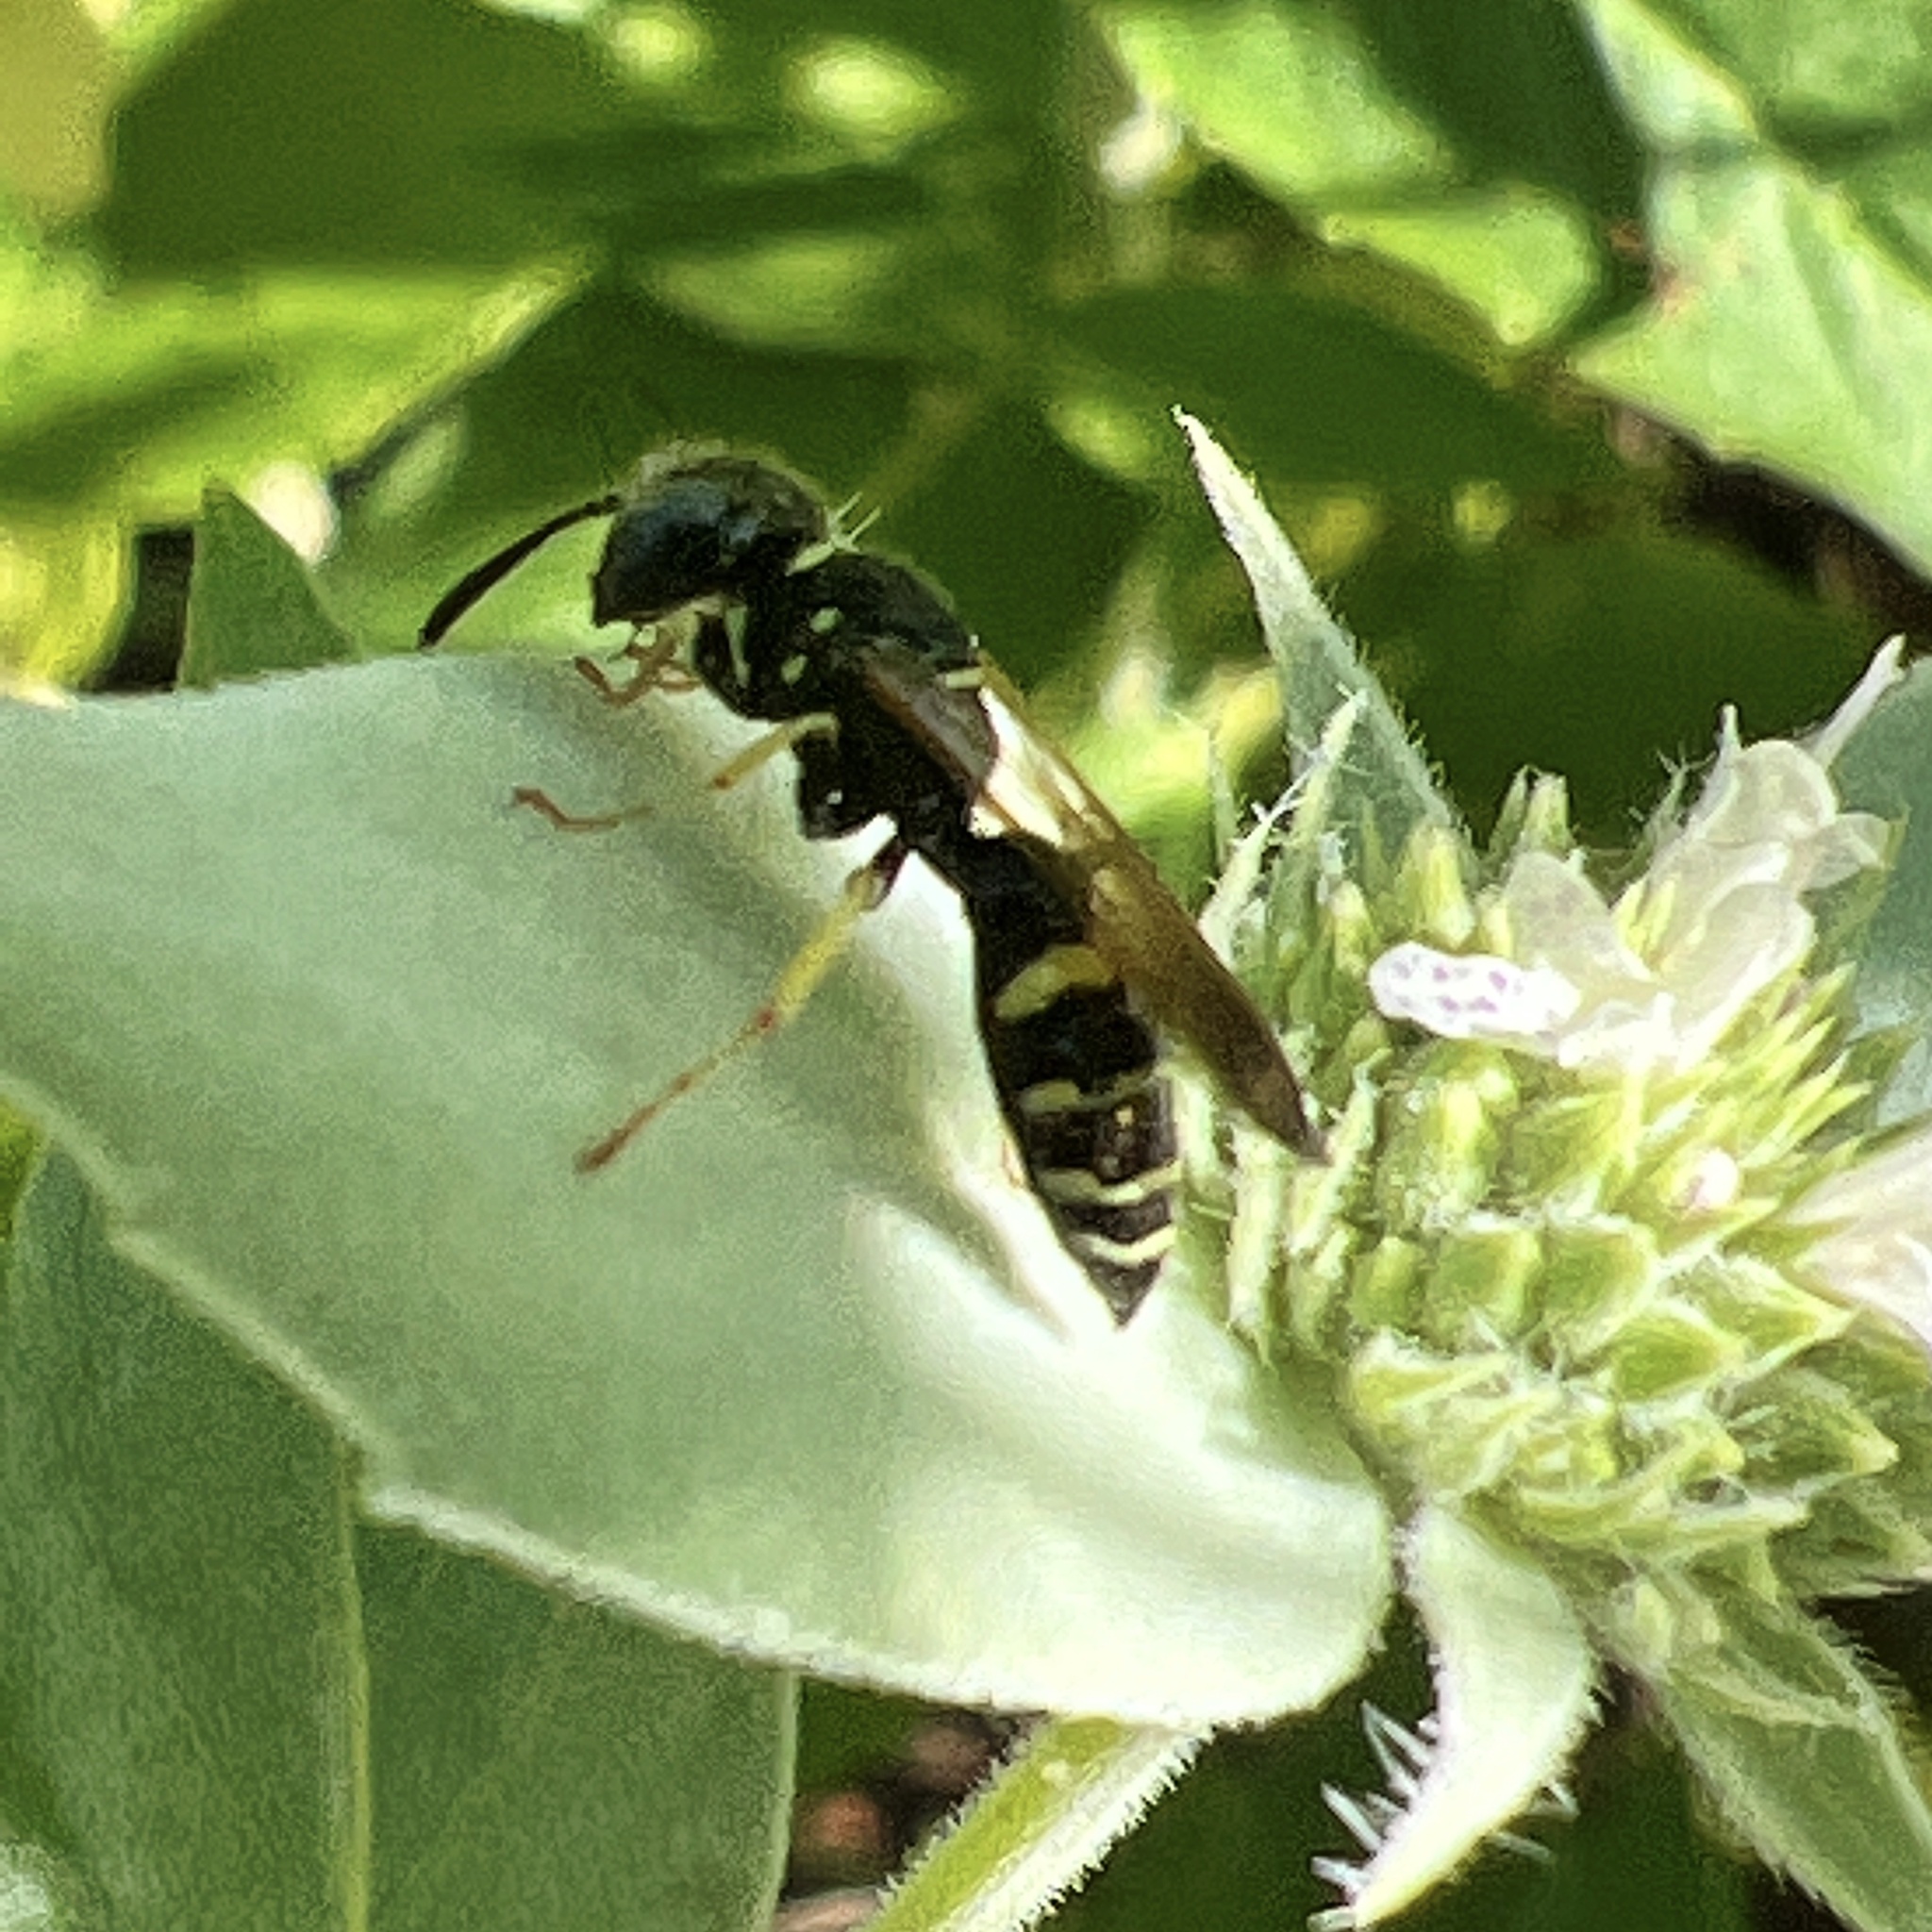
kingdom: Animalia
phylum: Arthropoda
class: Insecta
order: Hymenoptera
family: Crabronidae
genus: Philanthus
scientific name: Philanthus bilunatus
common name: Two moons beewolf
